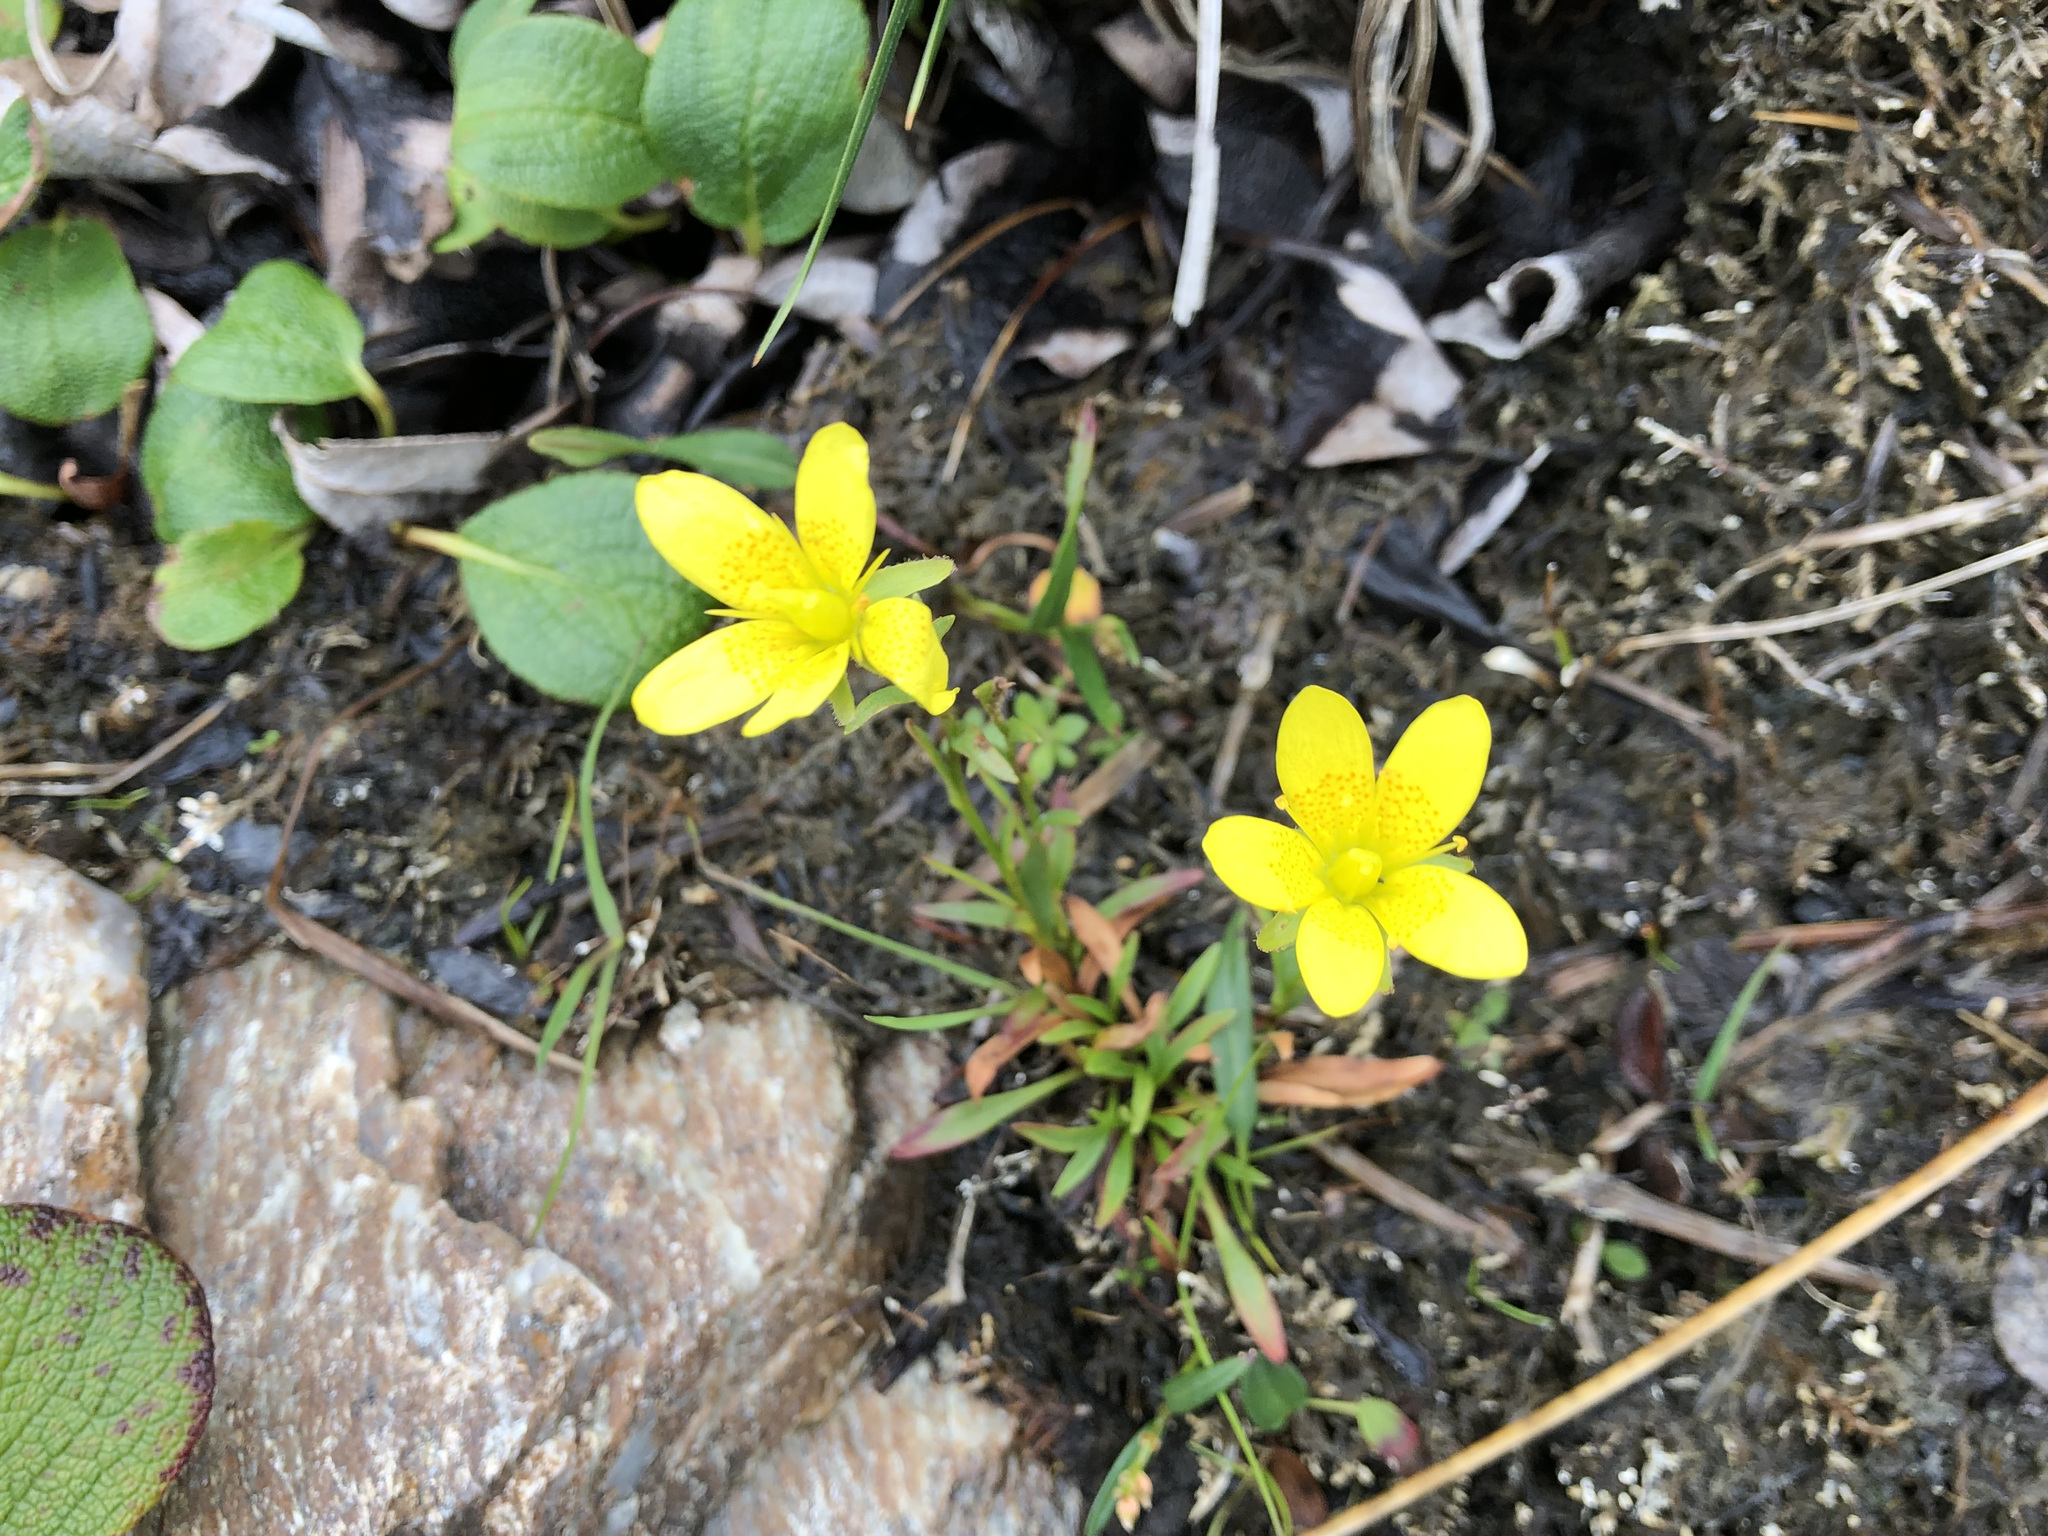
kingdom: Plantae
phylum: Tracheophyta
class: Magnoliopsida
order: Saxifragales
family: Saxifragaceae
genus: Saxifraga
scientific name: Saxifraga hirculus
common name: Yellow marsh saxifrage
